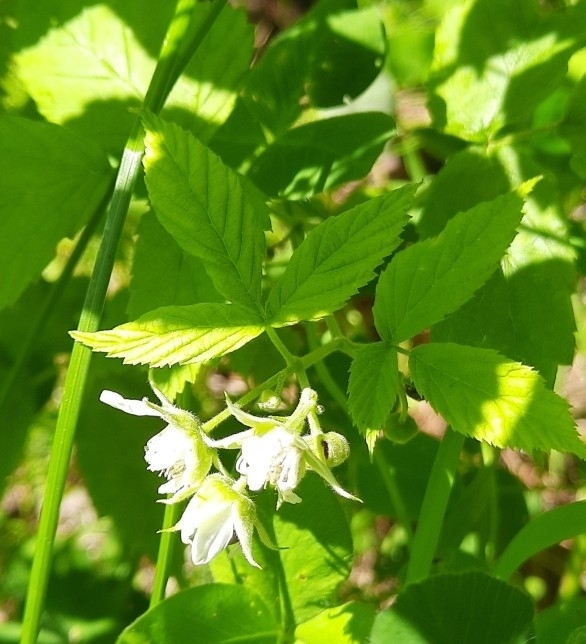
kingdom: Plantae
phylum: Tracheophyta
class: Magnoliopsida
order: Rosales
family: Rosaceae
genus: Rubus
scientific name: Rubus saxatilis
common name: Stone bramble
